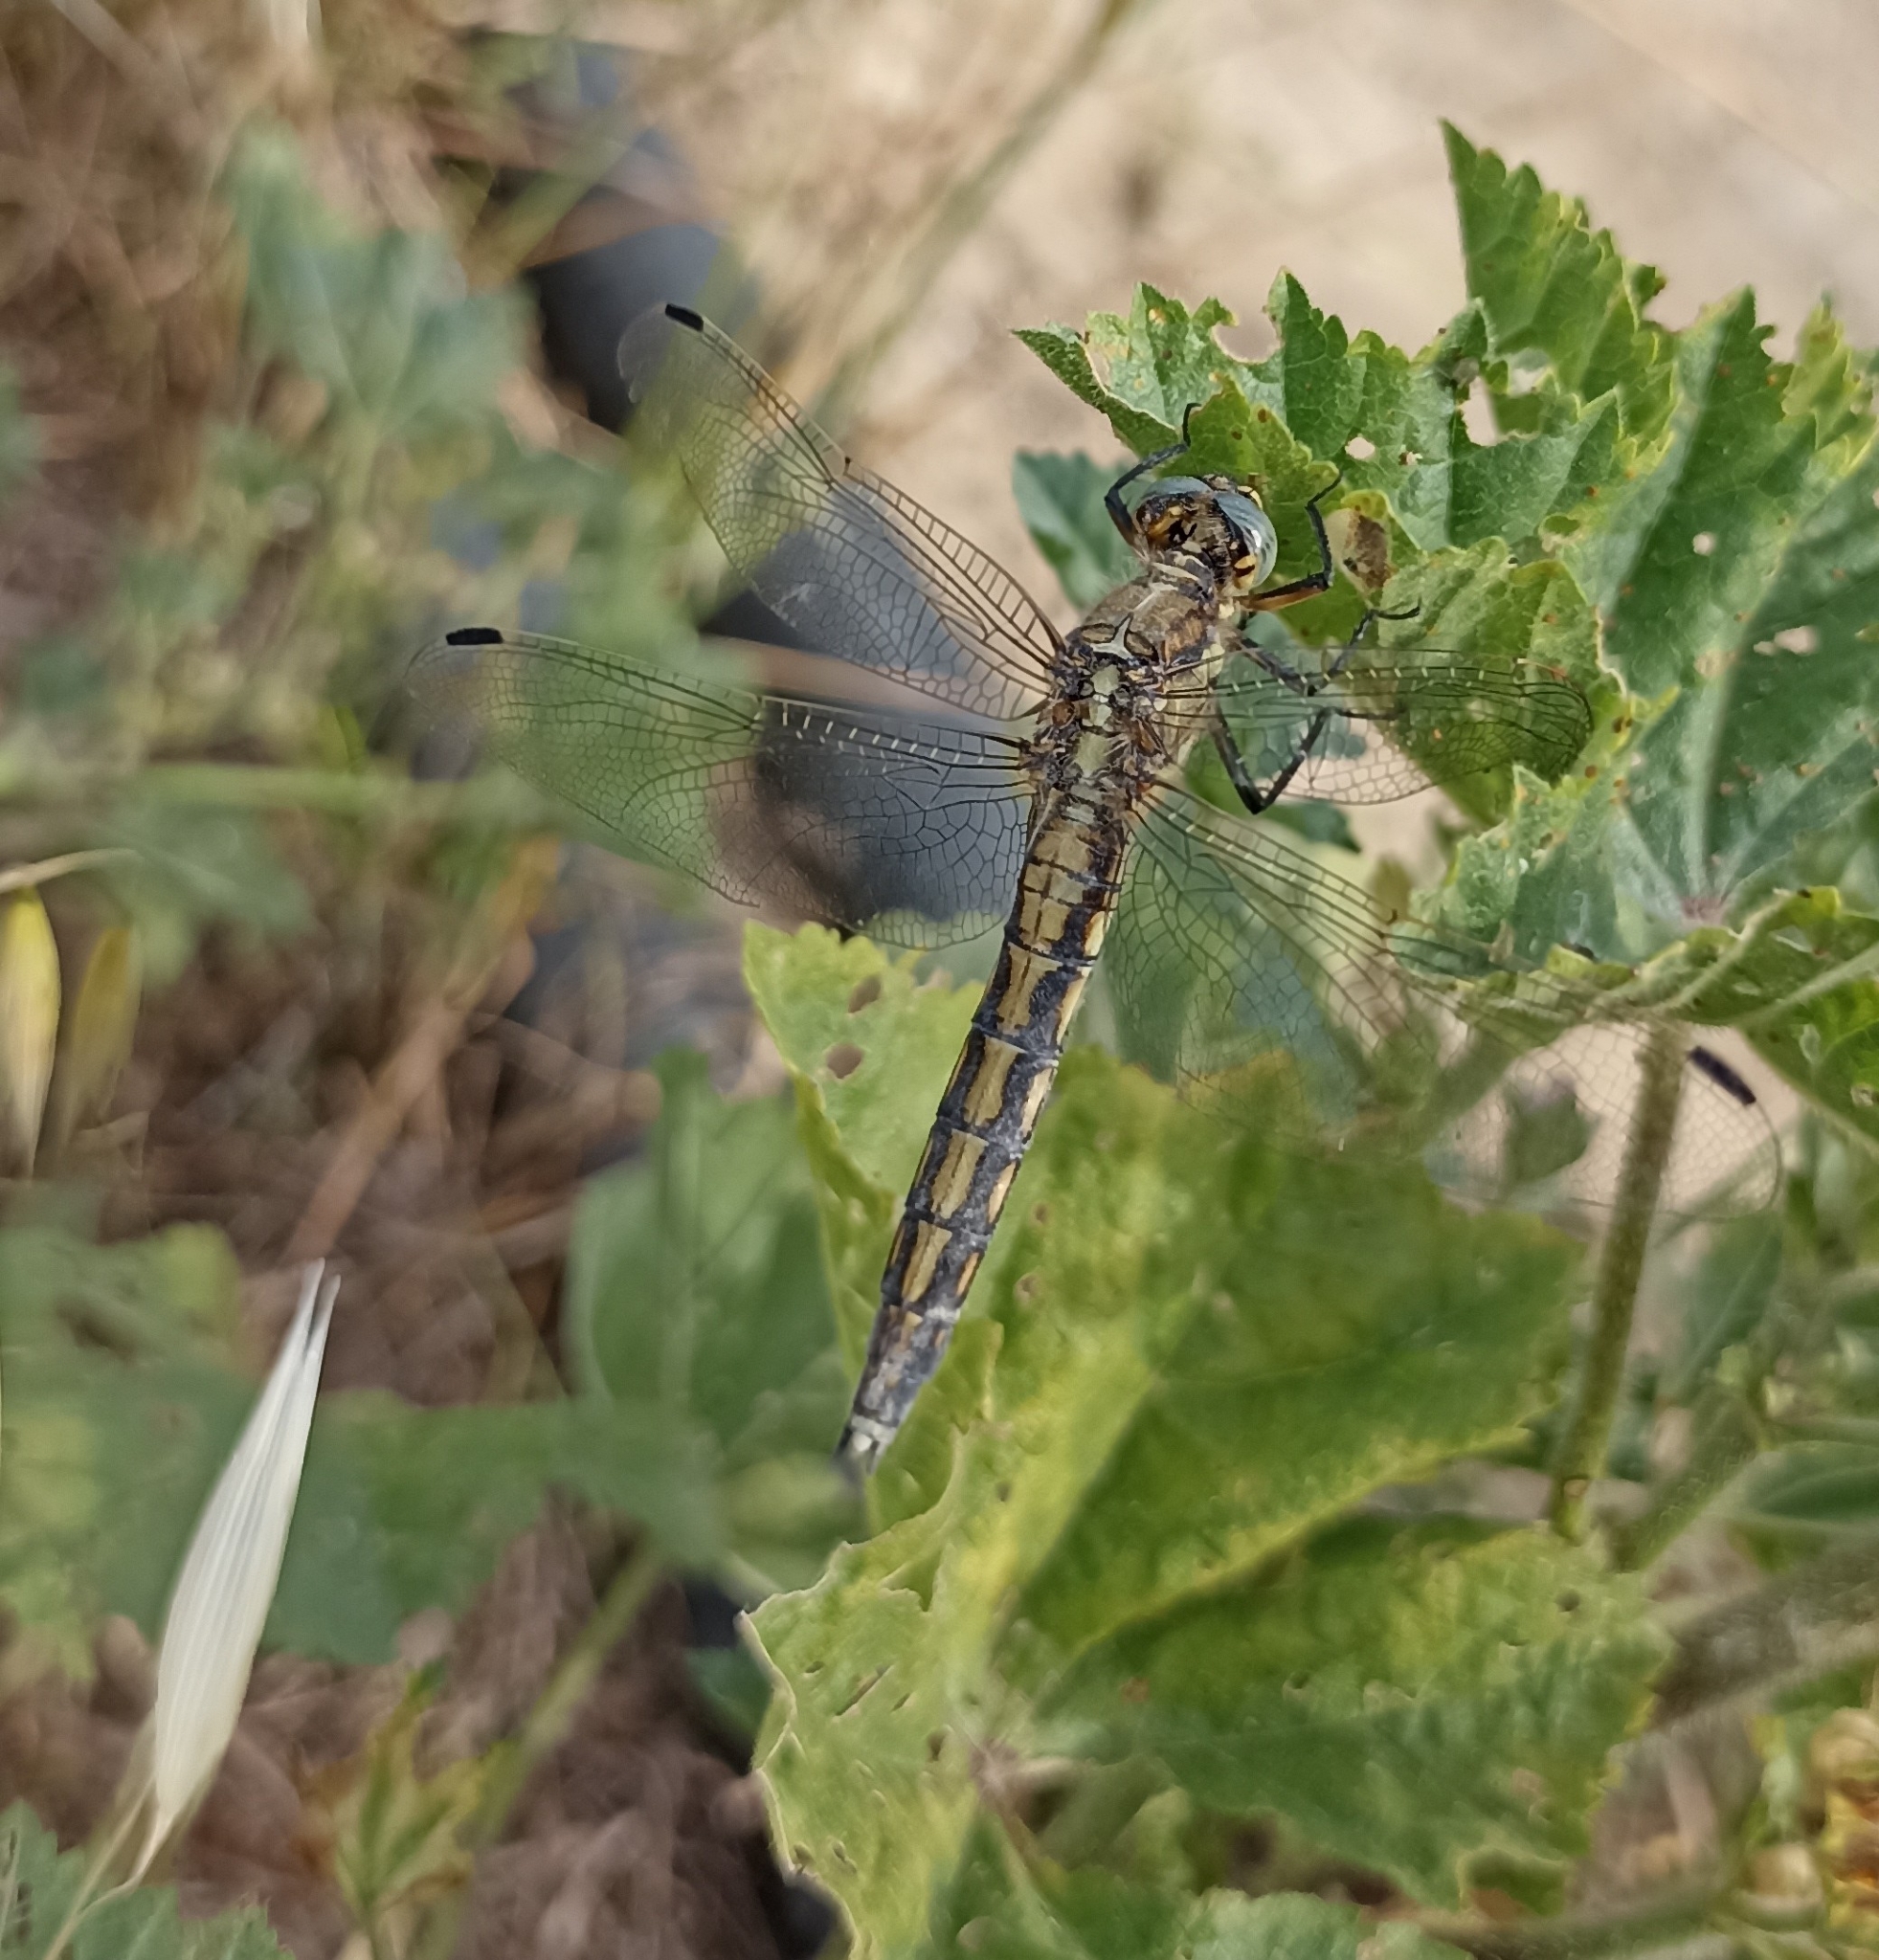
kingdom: Animalia
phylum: Arthropoda
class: Insecta
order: Odonata
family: Libellulidae
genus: Orthetrum
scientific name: Orthetrum cancellatum
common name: Black-tailed skimmer
